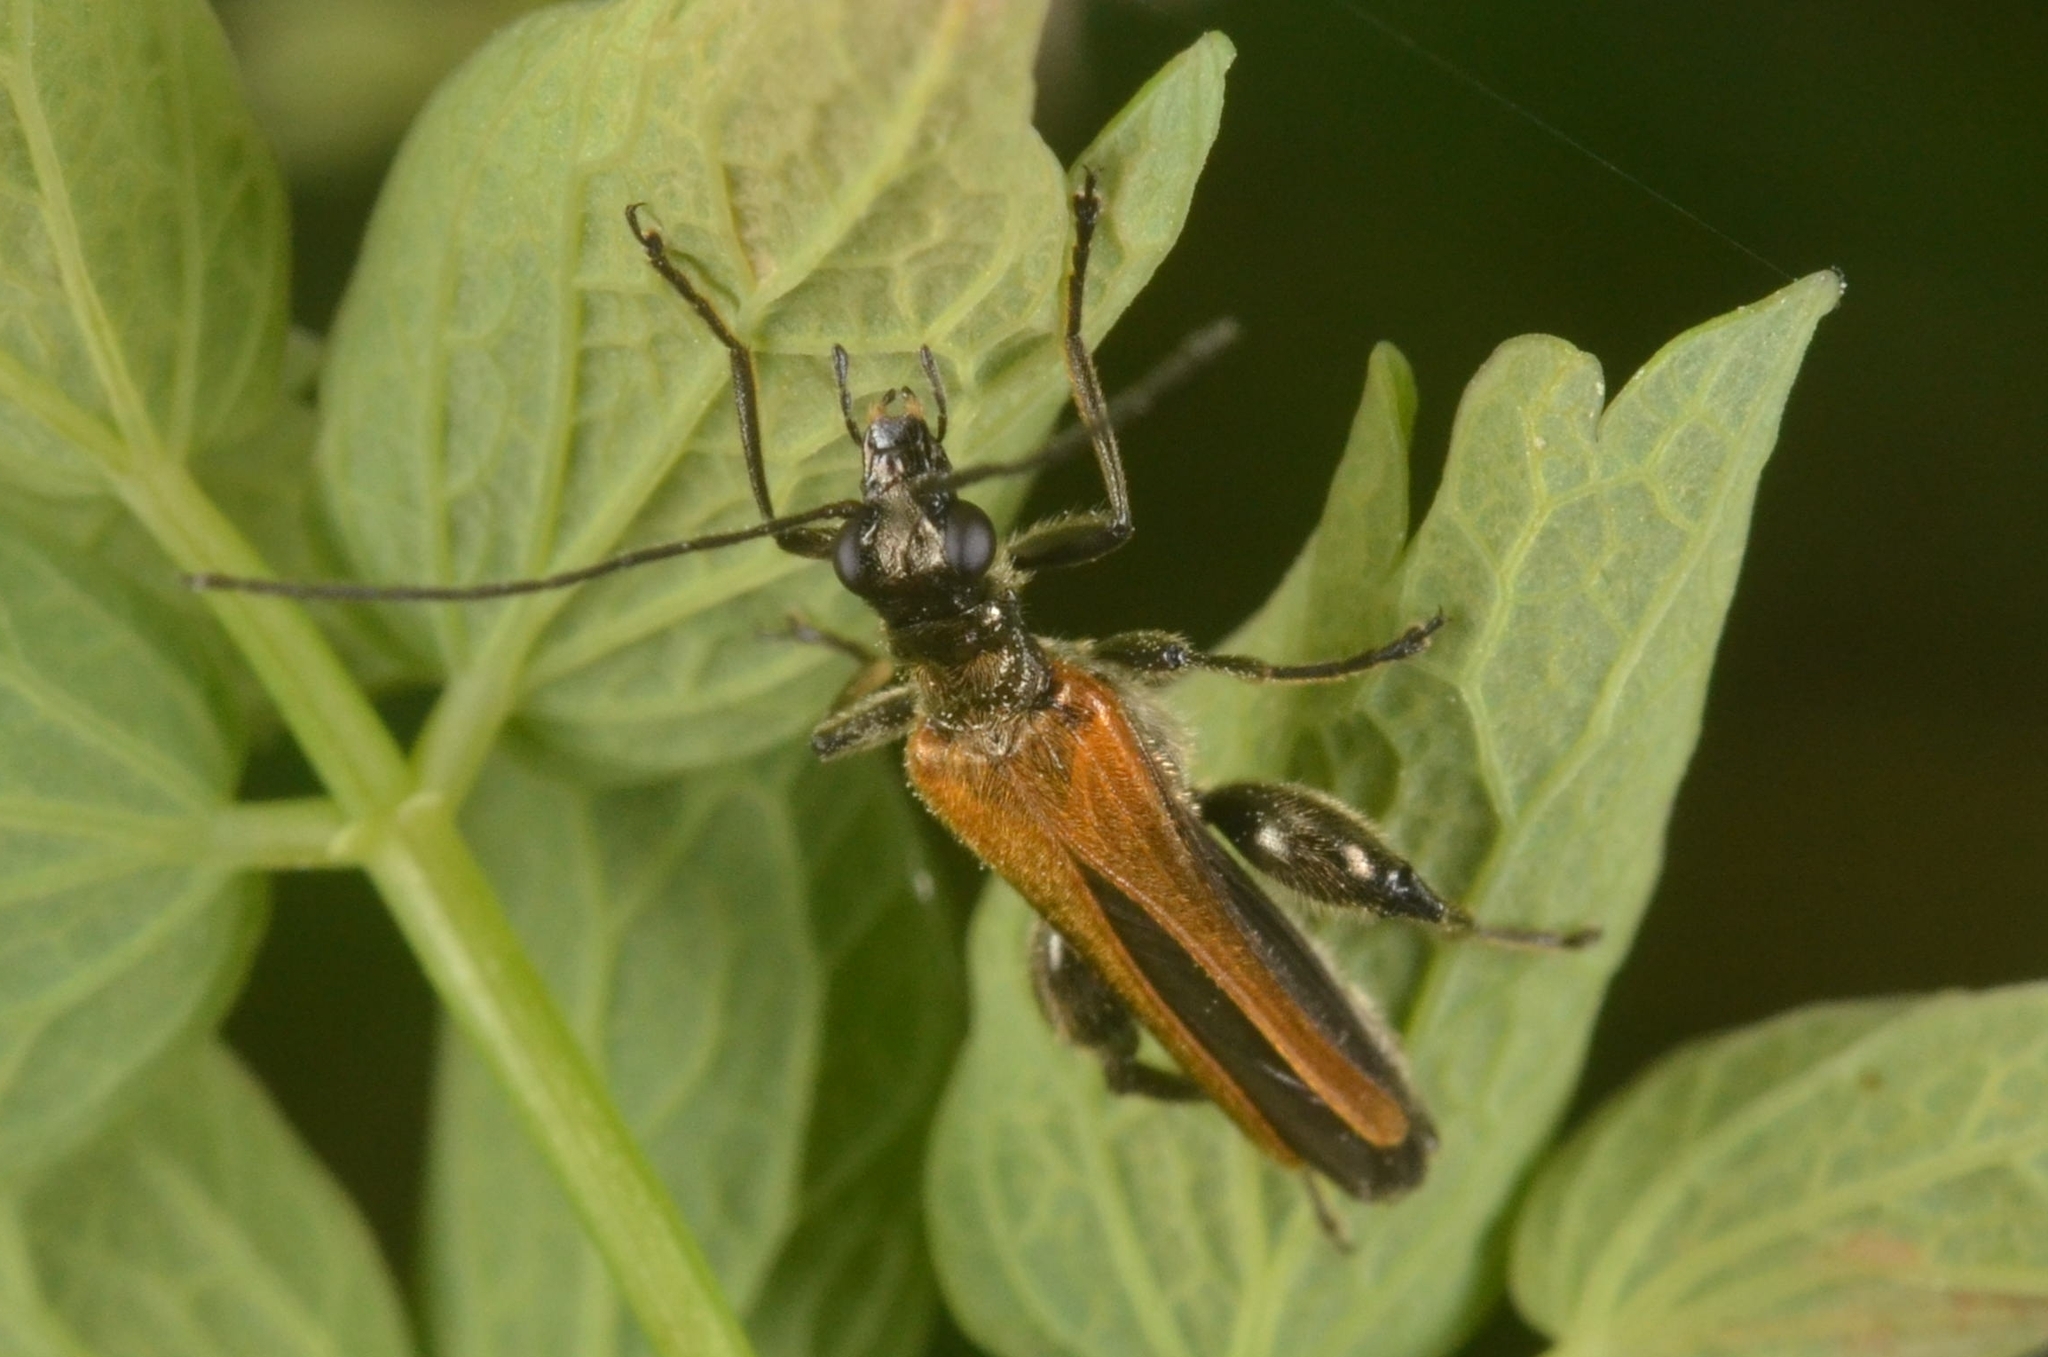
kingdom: Animalia
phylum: Arthropoda
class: Insecta
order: Coleoptera
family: Oedemeridae
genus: Oedemera
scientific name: Oedemera femorata
